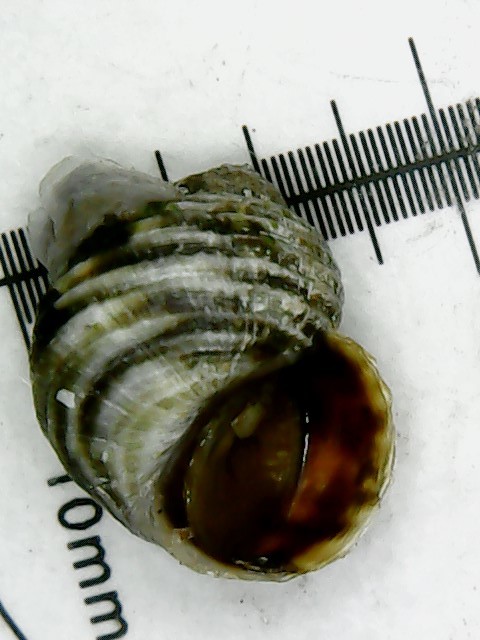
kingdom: Animalia
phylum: Mollusca
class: Gastropoda
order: Littorinimorpha
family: Littorinidae
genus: Littorina
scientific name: Littorina saxatilis
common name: Black-lined periwinkle
